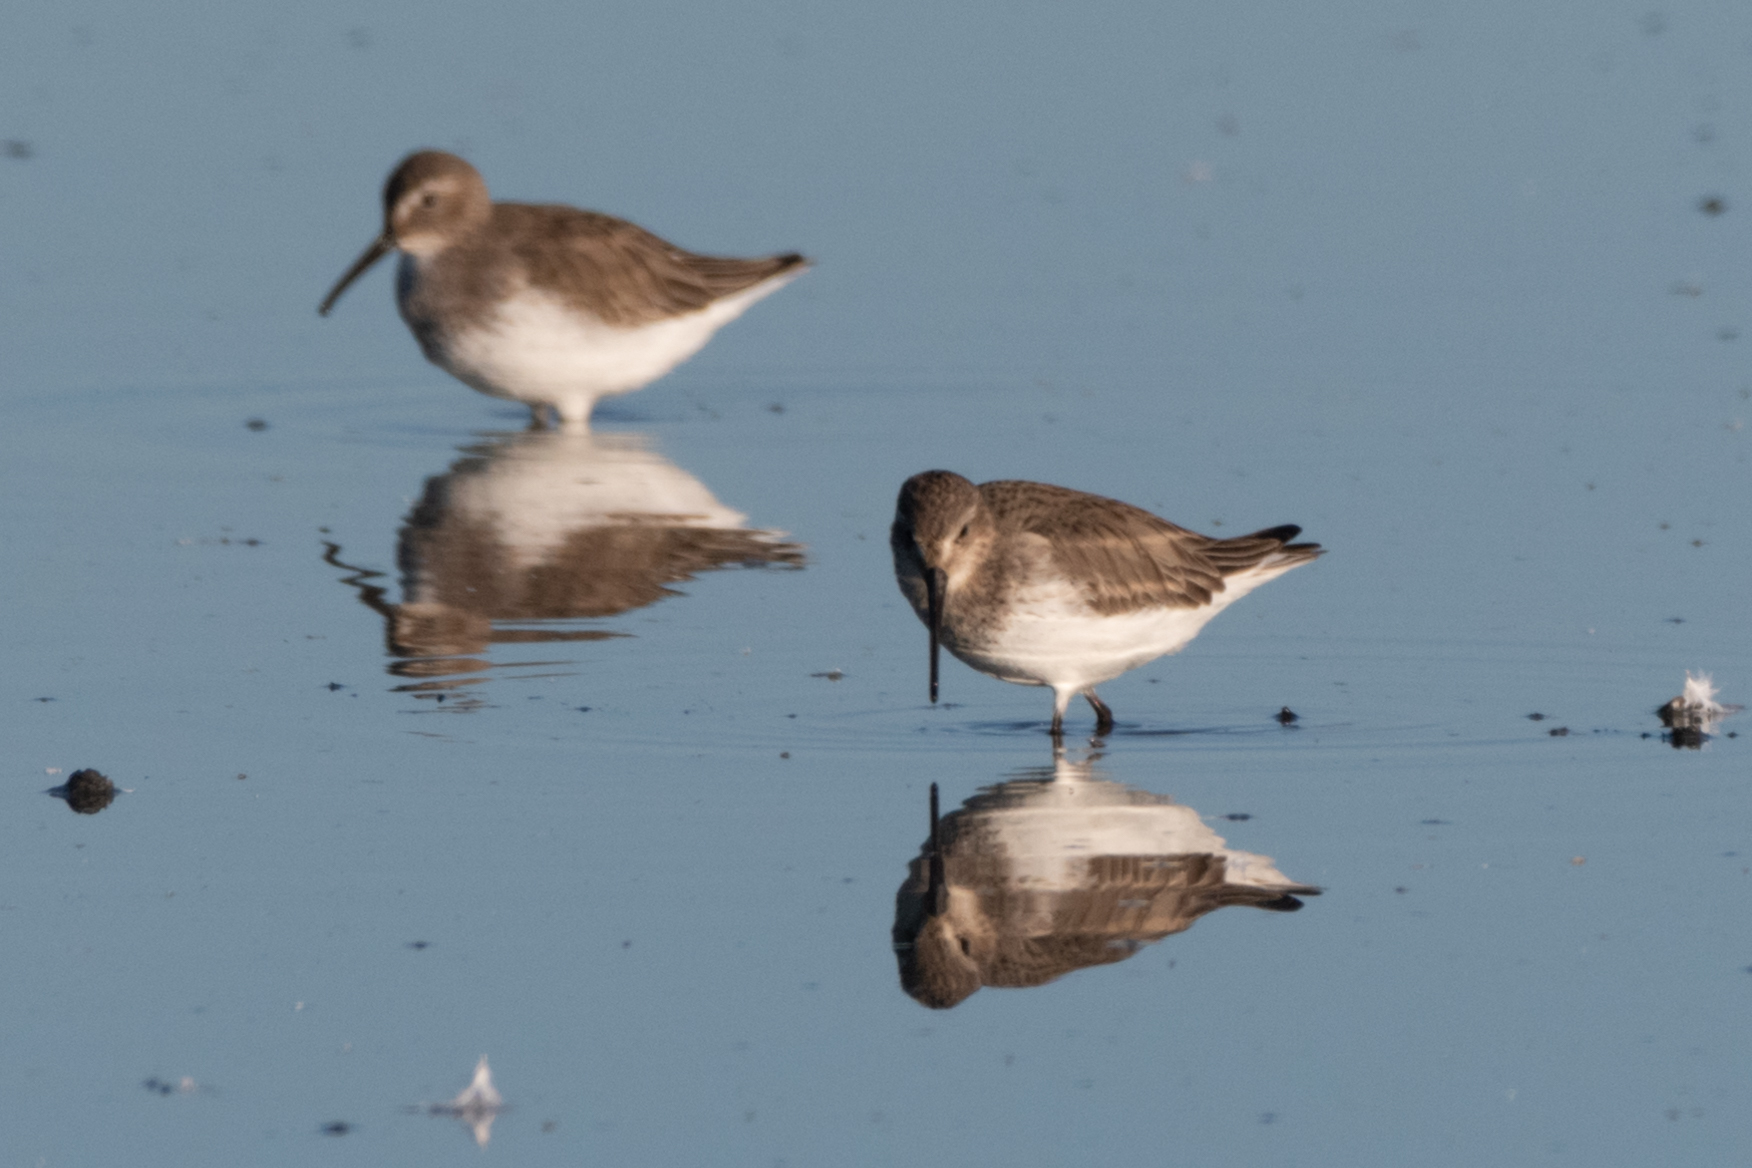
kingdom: Animalia
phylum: Chordata
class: Aves
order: Charadriiformes
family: Scolopacidae
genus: Calidris
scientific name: Calidris alpina
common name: Dunlin
